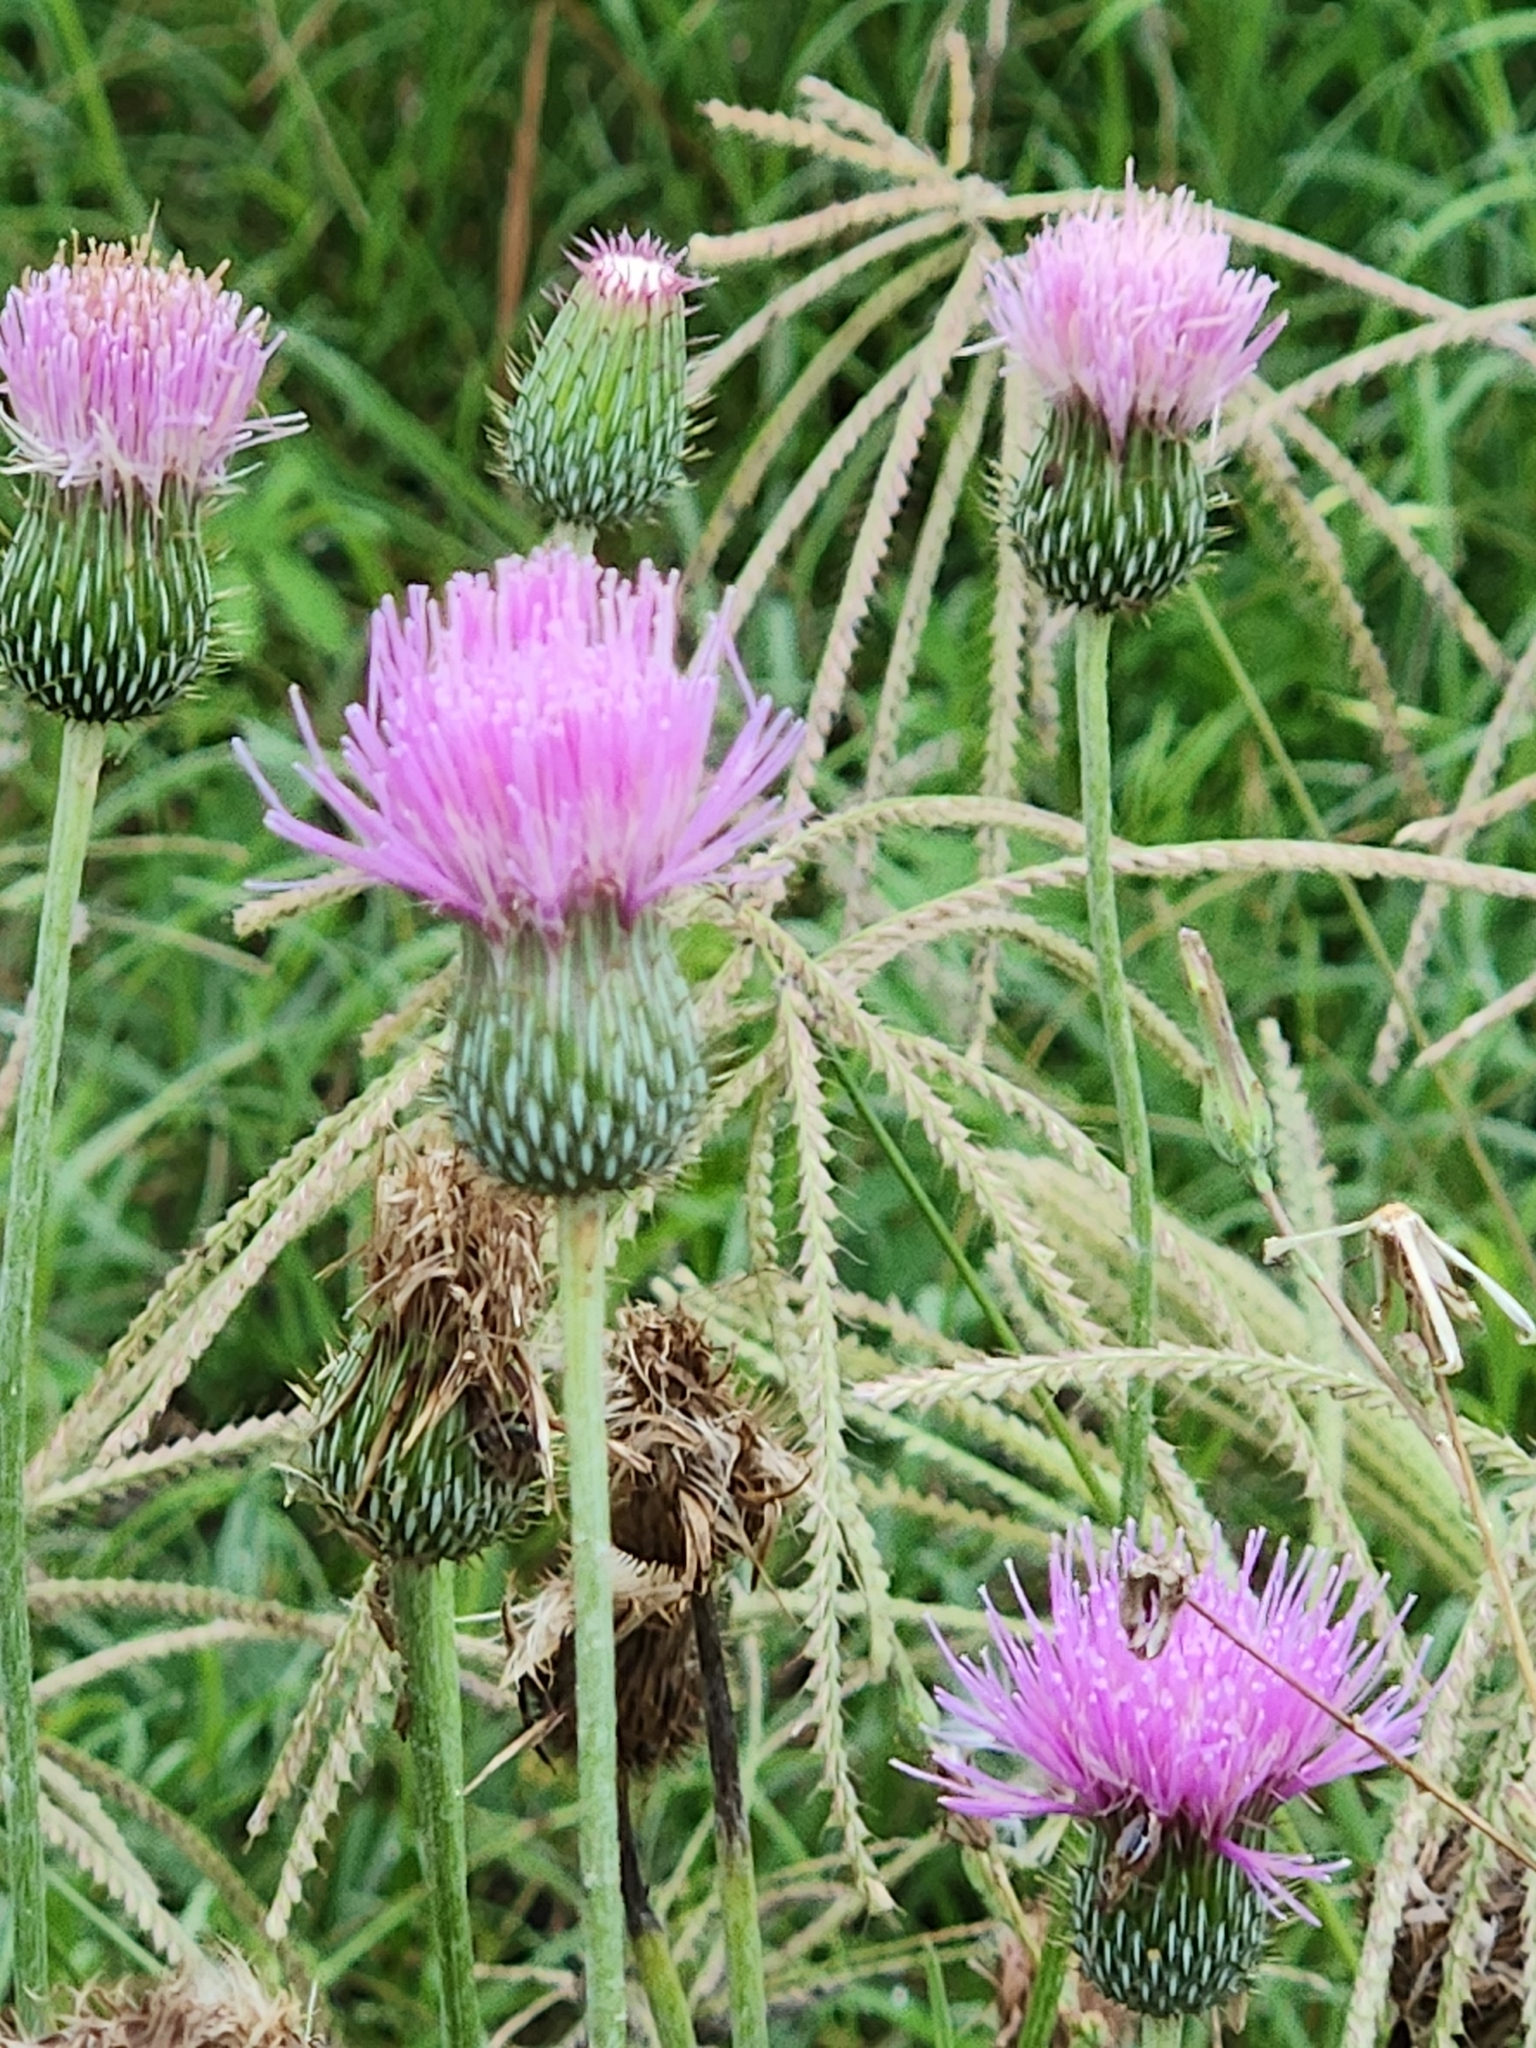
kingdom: Plantae
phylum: Tracheophyta
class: Magnoliopsida
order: Asterales
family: Asteraceae
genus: Cirsium
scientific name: Cirsium texanum
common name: Texas purple thistle
